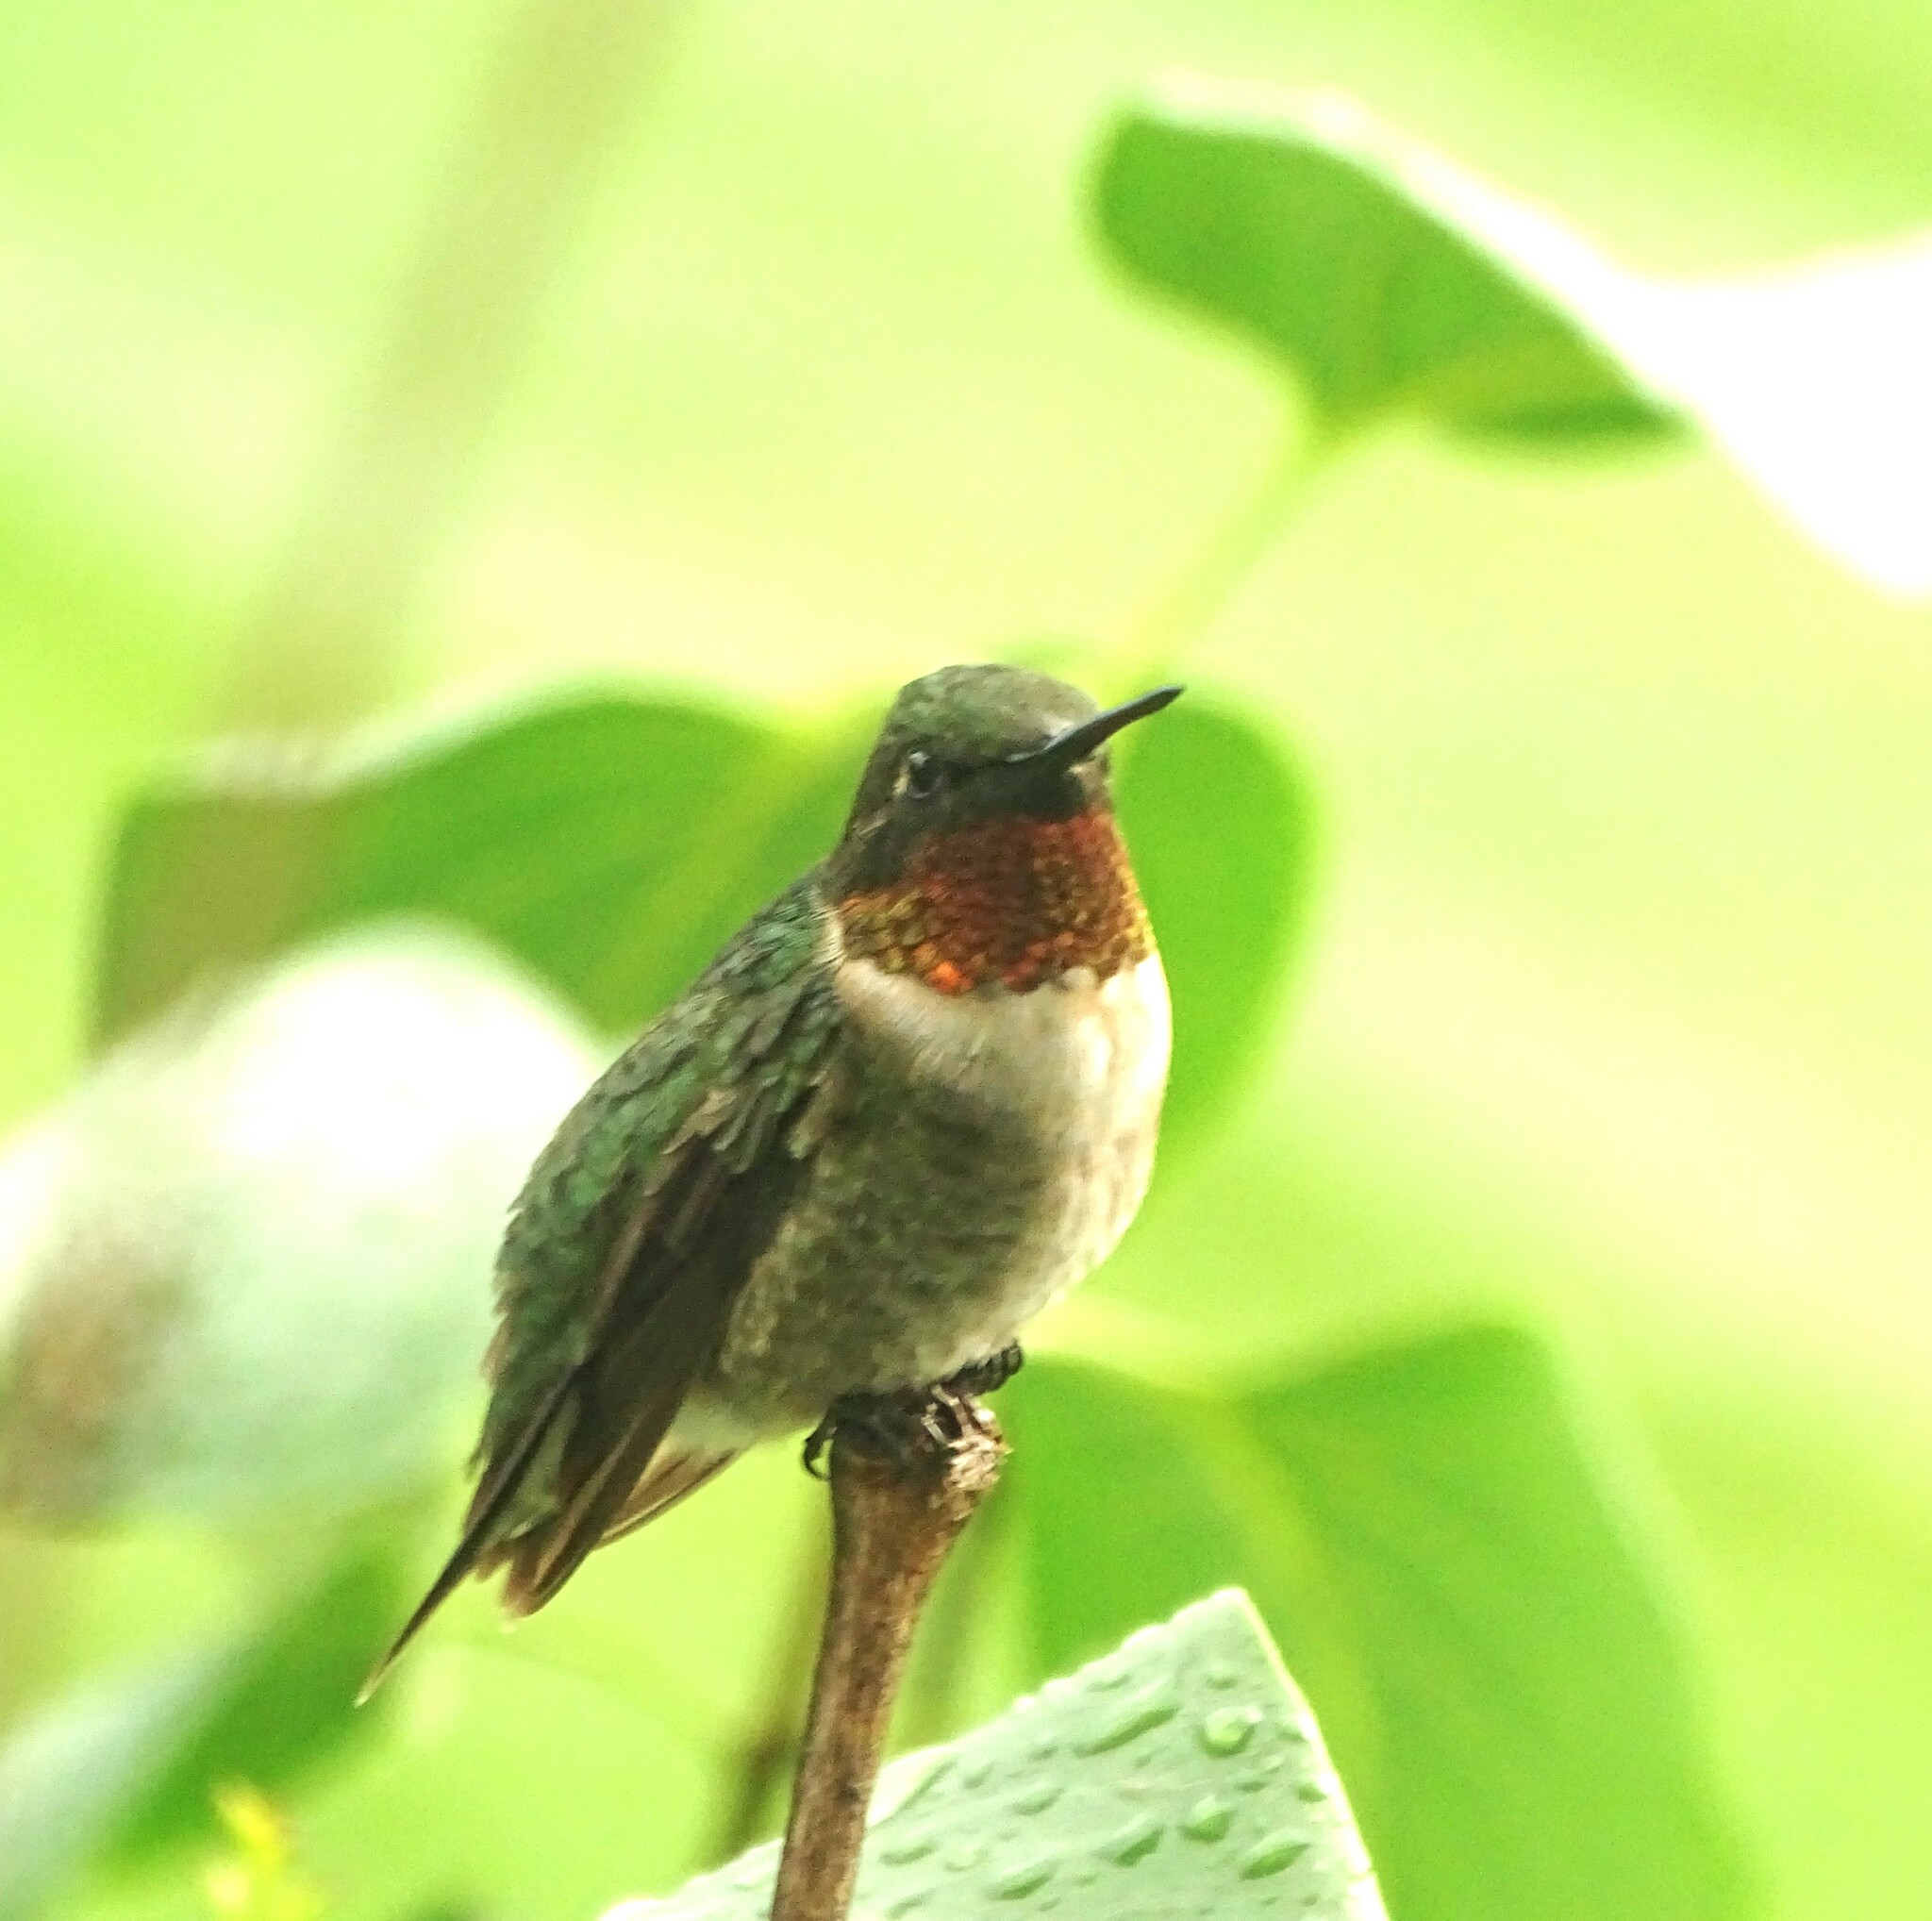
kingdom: Animalia
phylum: Chordata
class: Aves
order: Apodiformes
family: Trochilidae
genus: Archilochus
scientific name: Archilochus colubris
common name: Ruby-throated hummingbird
